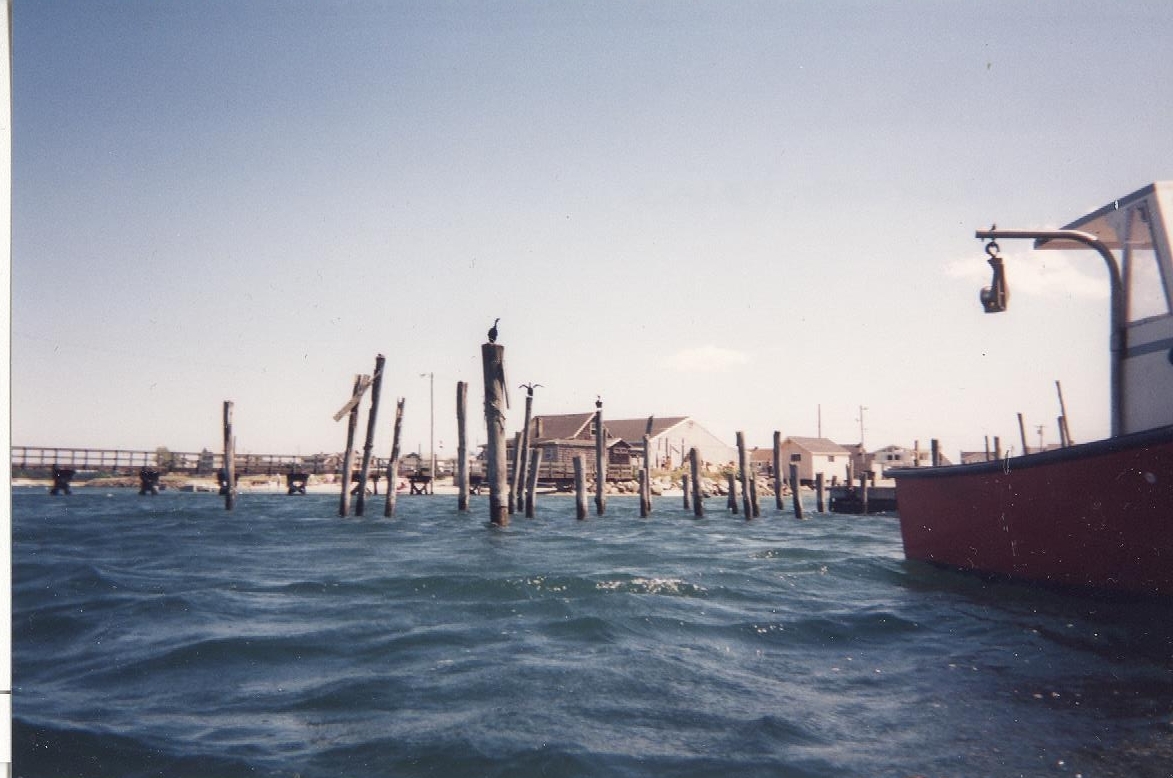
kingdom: Animalia
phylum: Chordata
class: Aves
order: Suliformes
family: Phalacrocoracidae
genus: Phalacrocorax
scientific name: Phalacrocorax auritus
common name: Double-crested cormorant
